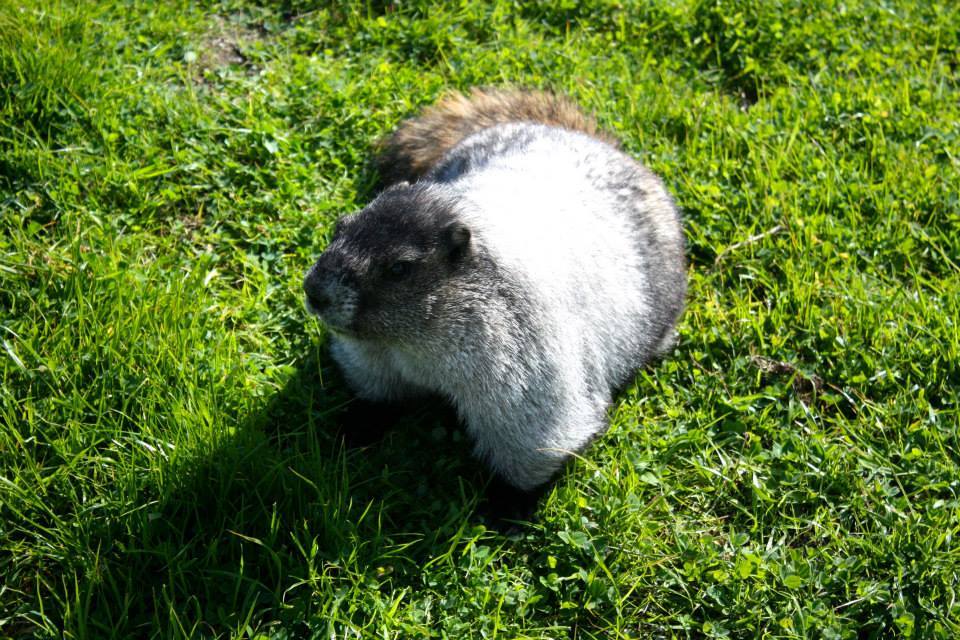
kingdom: Animalia
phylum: Chordata
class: Mammalia
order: Rodentia
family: Sciuridae
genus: Marmota
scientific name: Marmota caligata
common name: Hoary marmot
